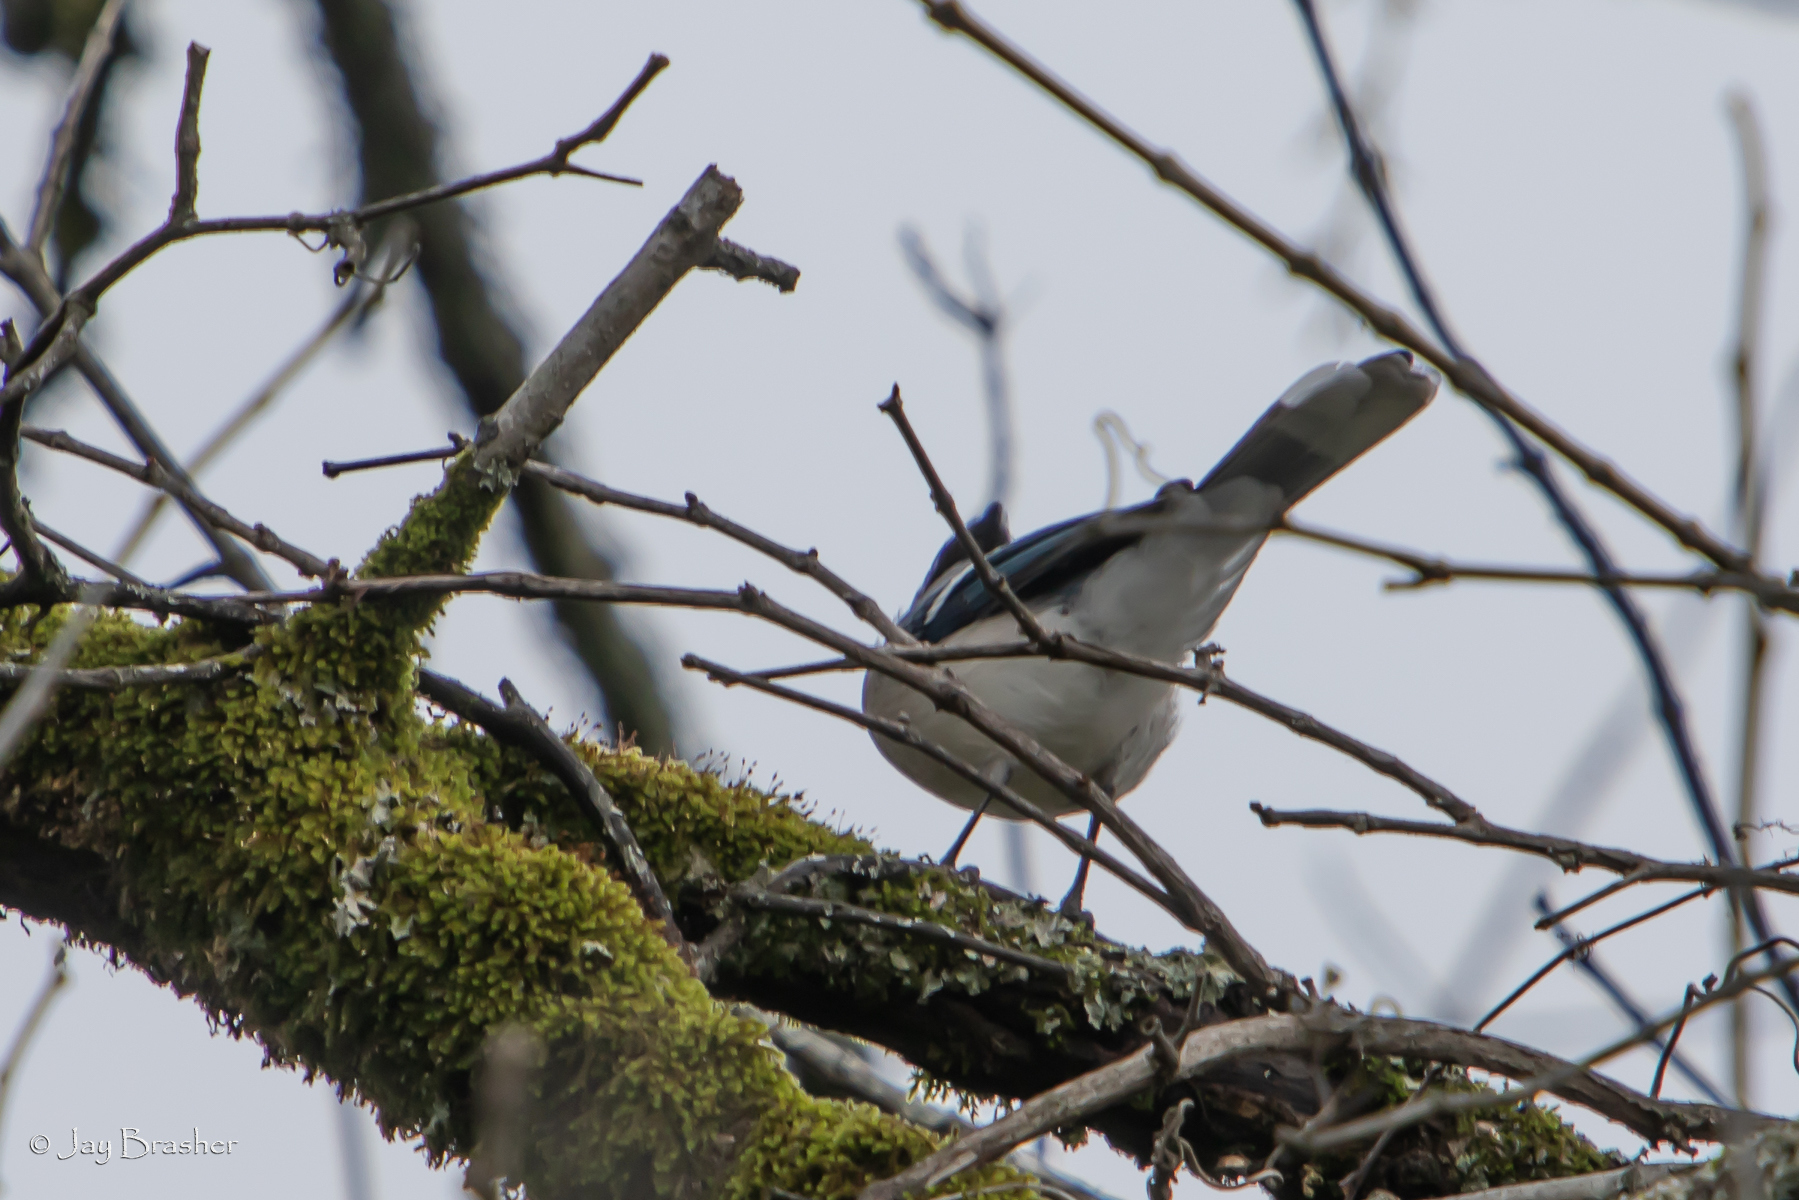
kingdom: Animalia
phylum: Chordata
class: Aves
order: Passeriformes
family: Corvidae
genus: Cyanocitta
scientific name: Cyanocitta cristata
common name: Blue jay
